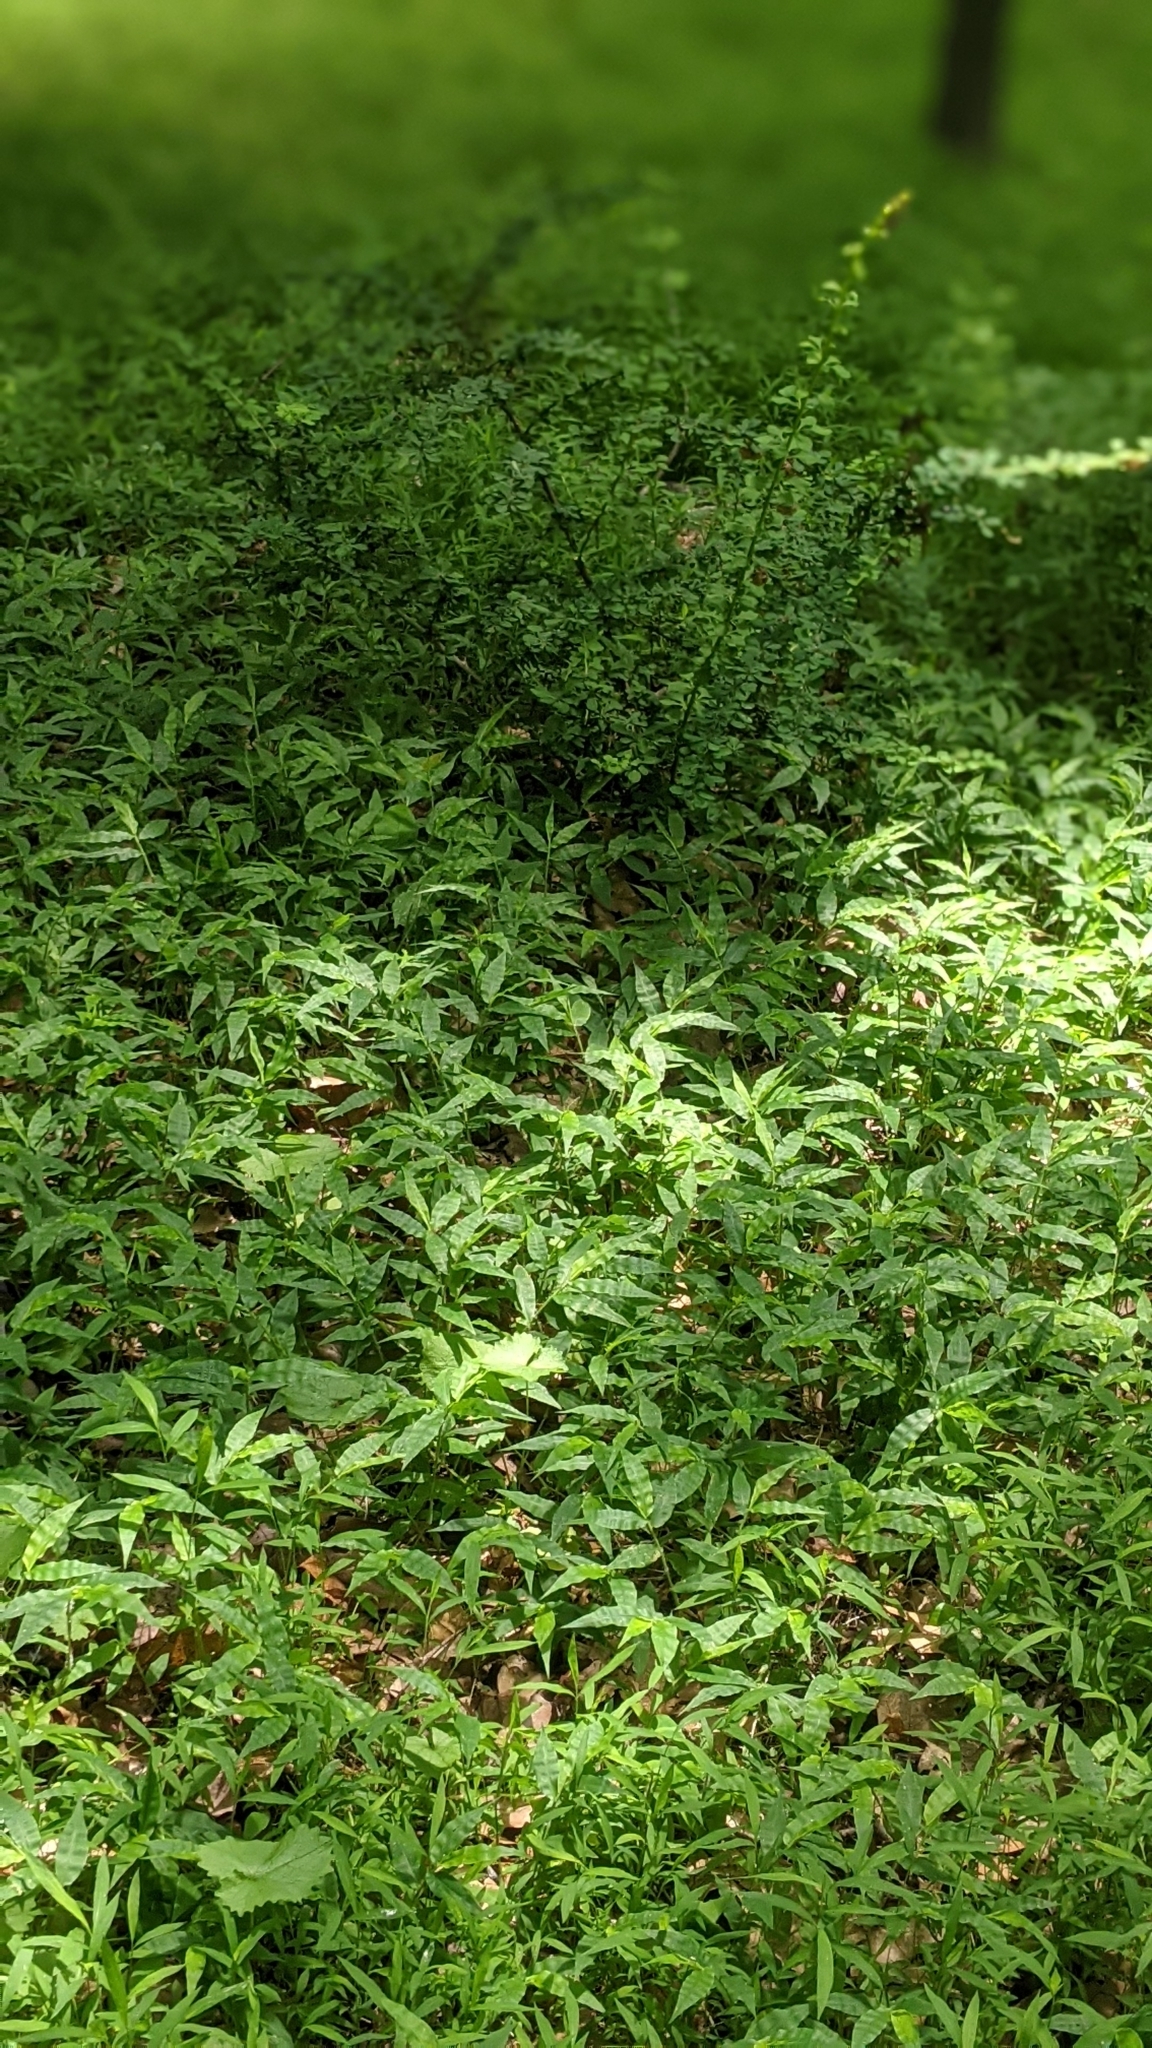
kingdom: Plantae
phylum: Tracheophyta
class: Liliopsida
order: Poales
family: Poaceae
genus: Oplismenus
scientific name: Oplismenus undulatifolius
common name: Wavyleaf basketgrass
